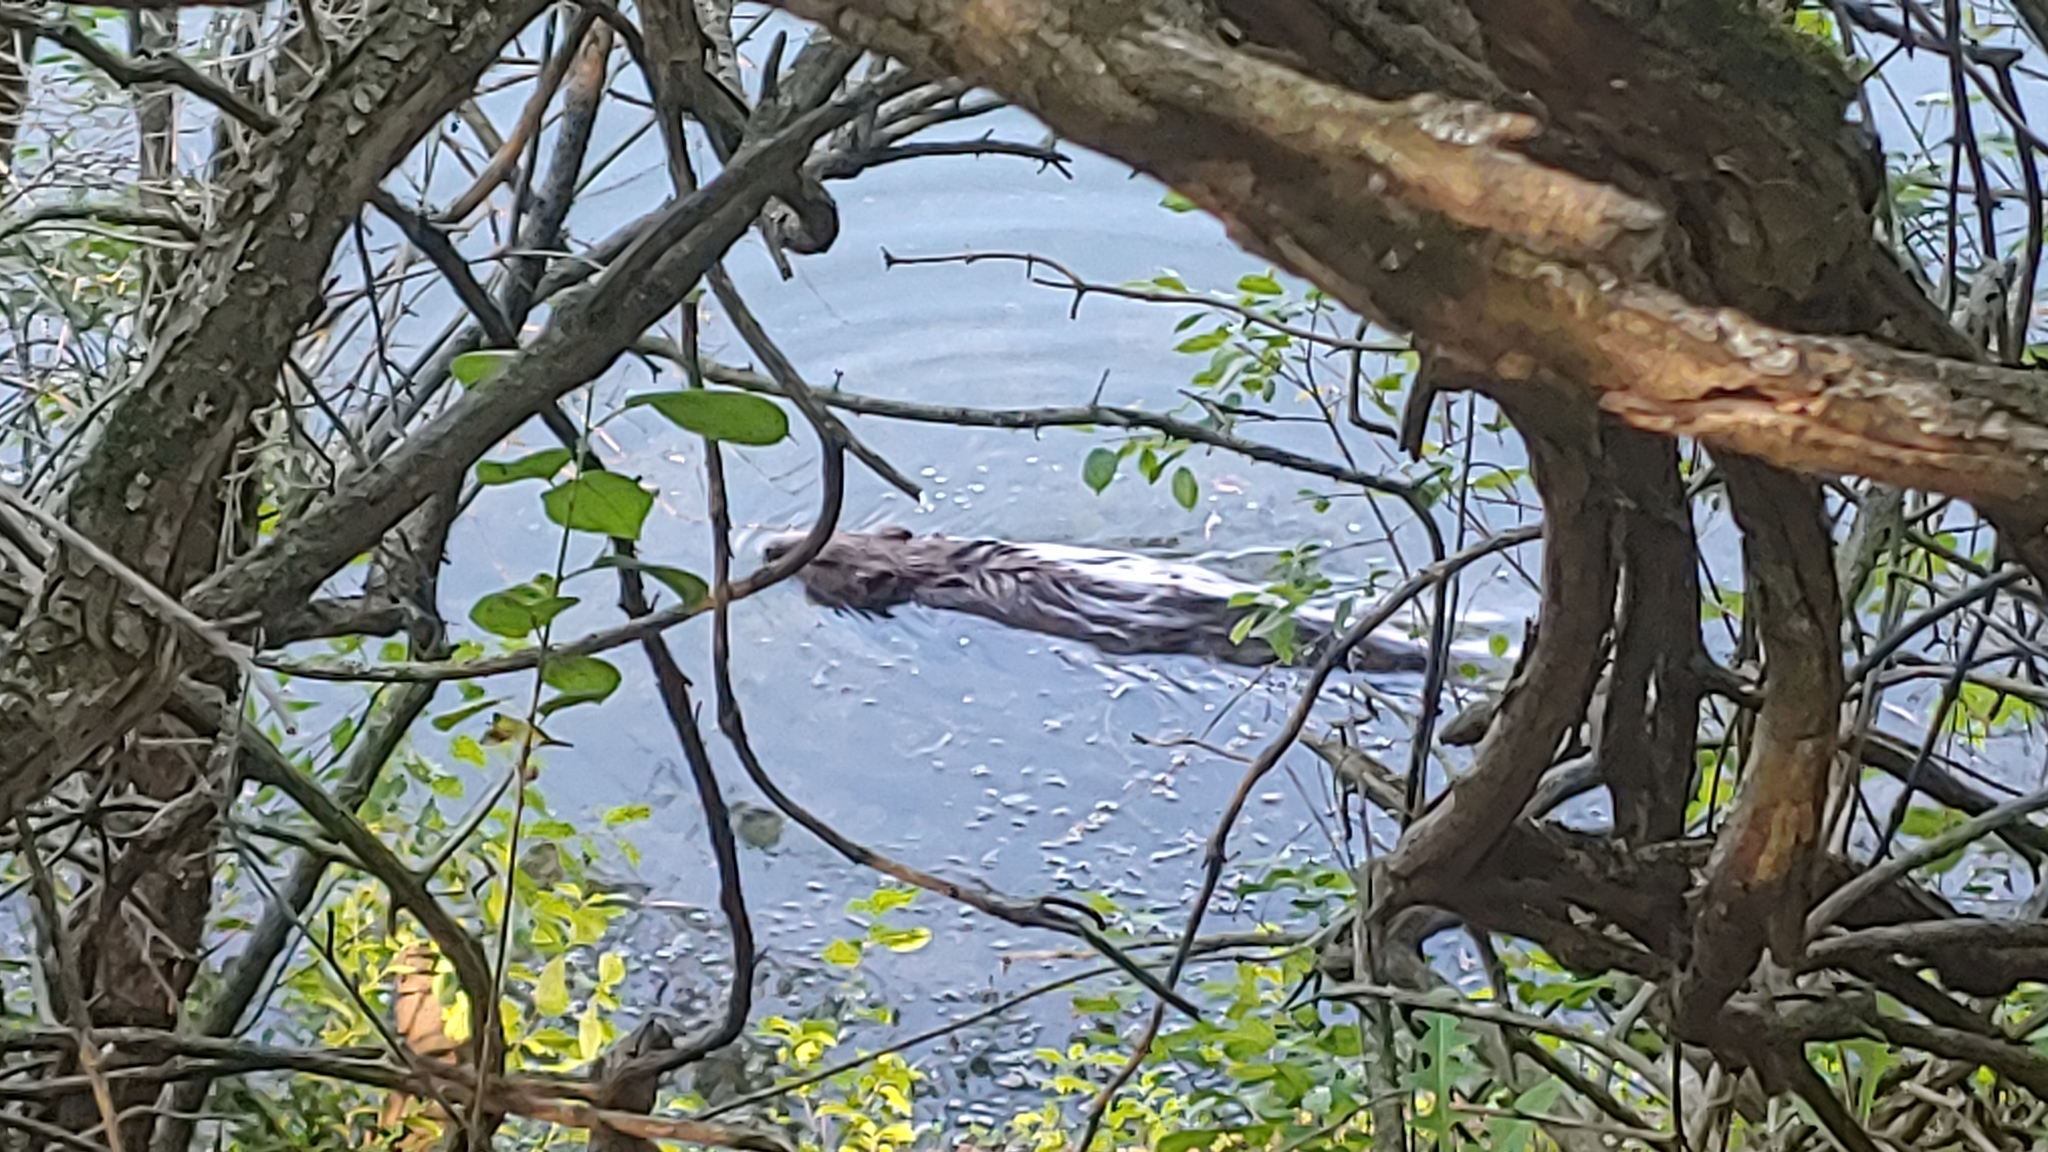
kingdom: Animalia
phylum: Chordata
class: Mammalia
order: Rodentia
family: Castoridae
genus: Castor
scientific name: Castor canadensis
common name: American beaver
